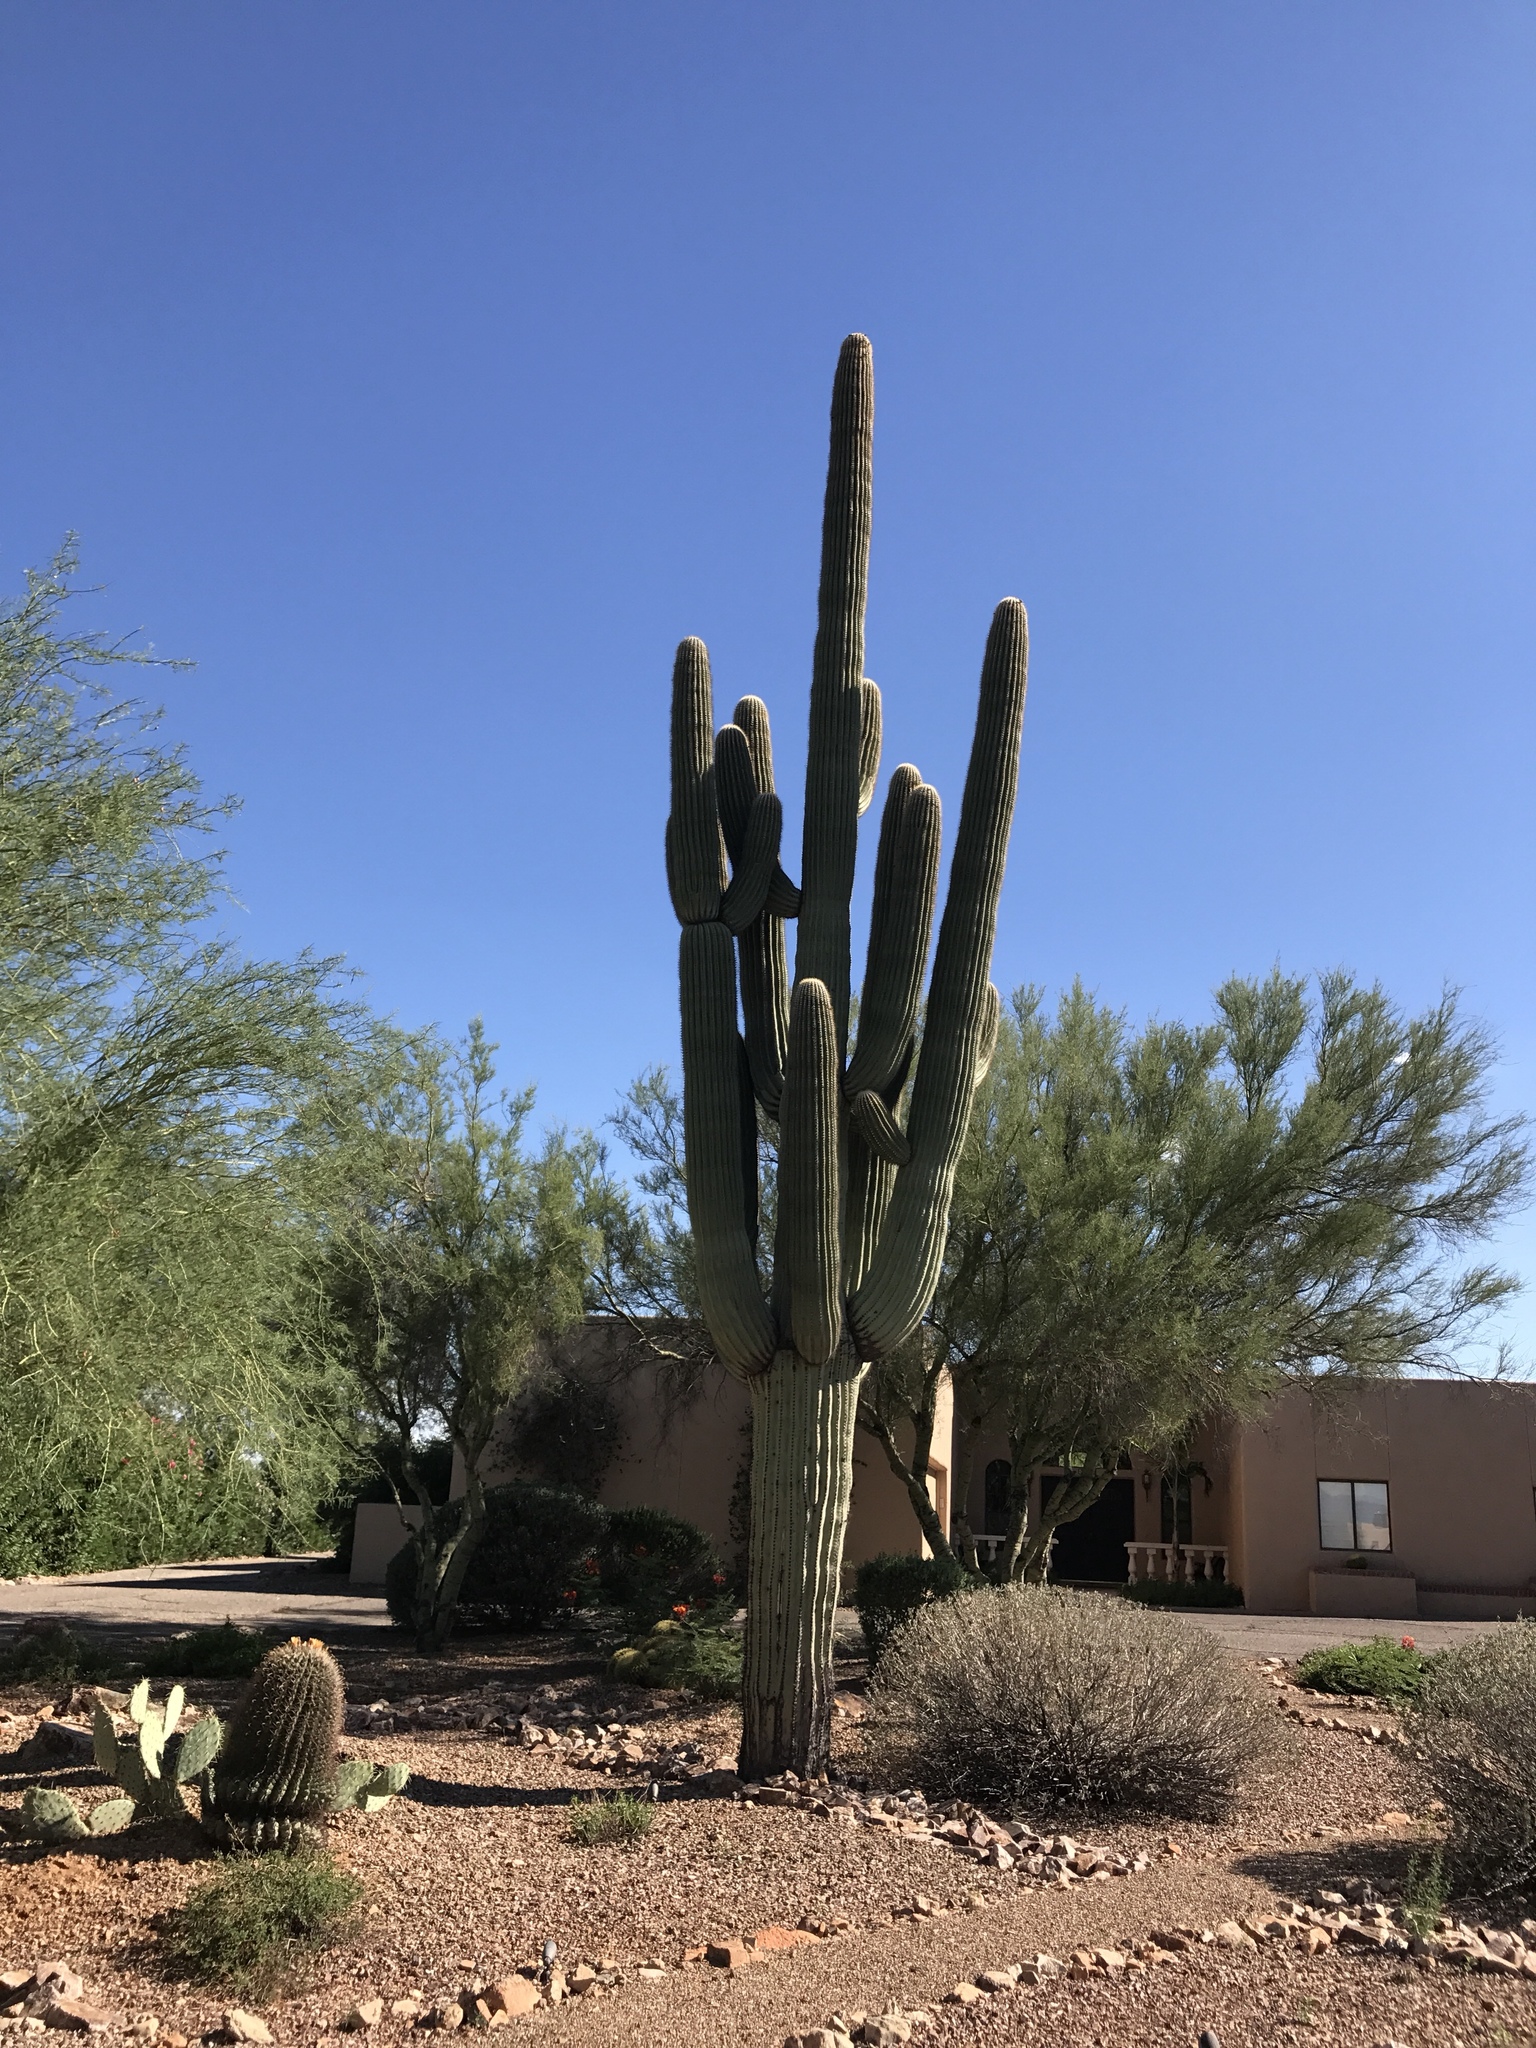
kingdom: Plantae
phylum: Tracheophyta
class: Magnoliopsida
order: Caryophyllales
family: Cactaceae
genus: Carnegiea
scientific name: Carnegiea gigantea
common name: Saguaro
